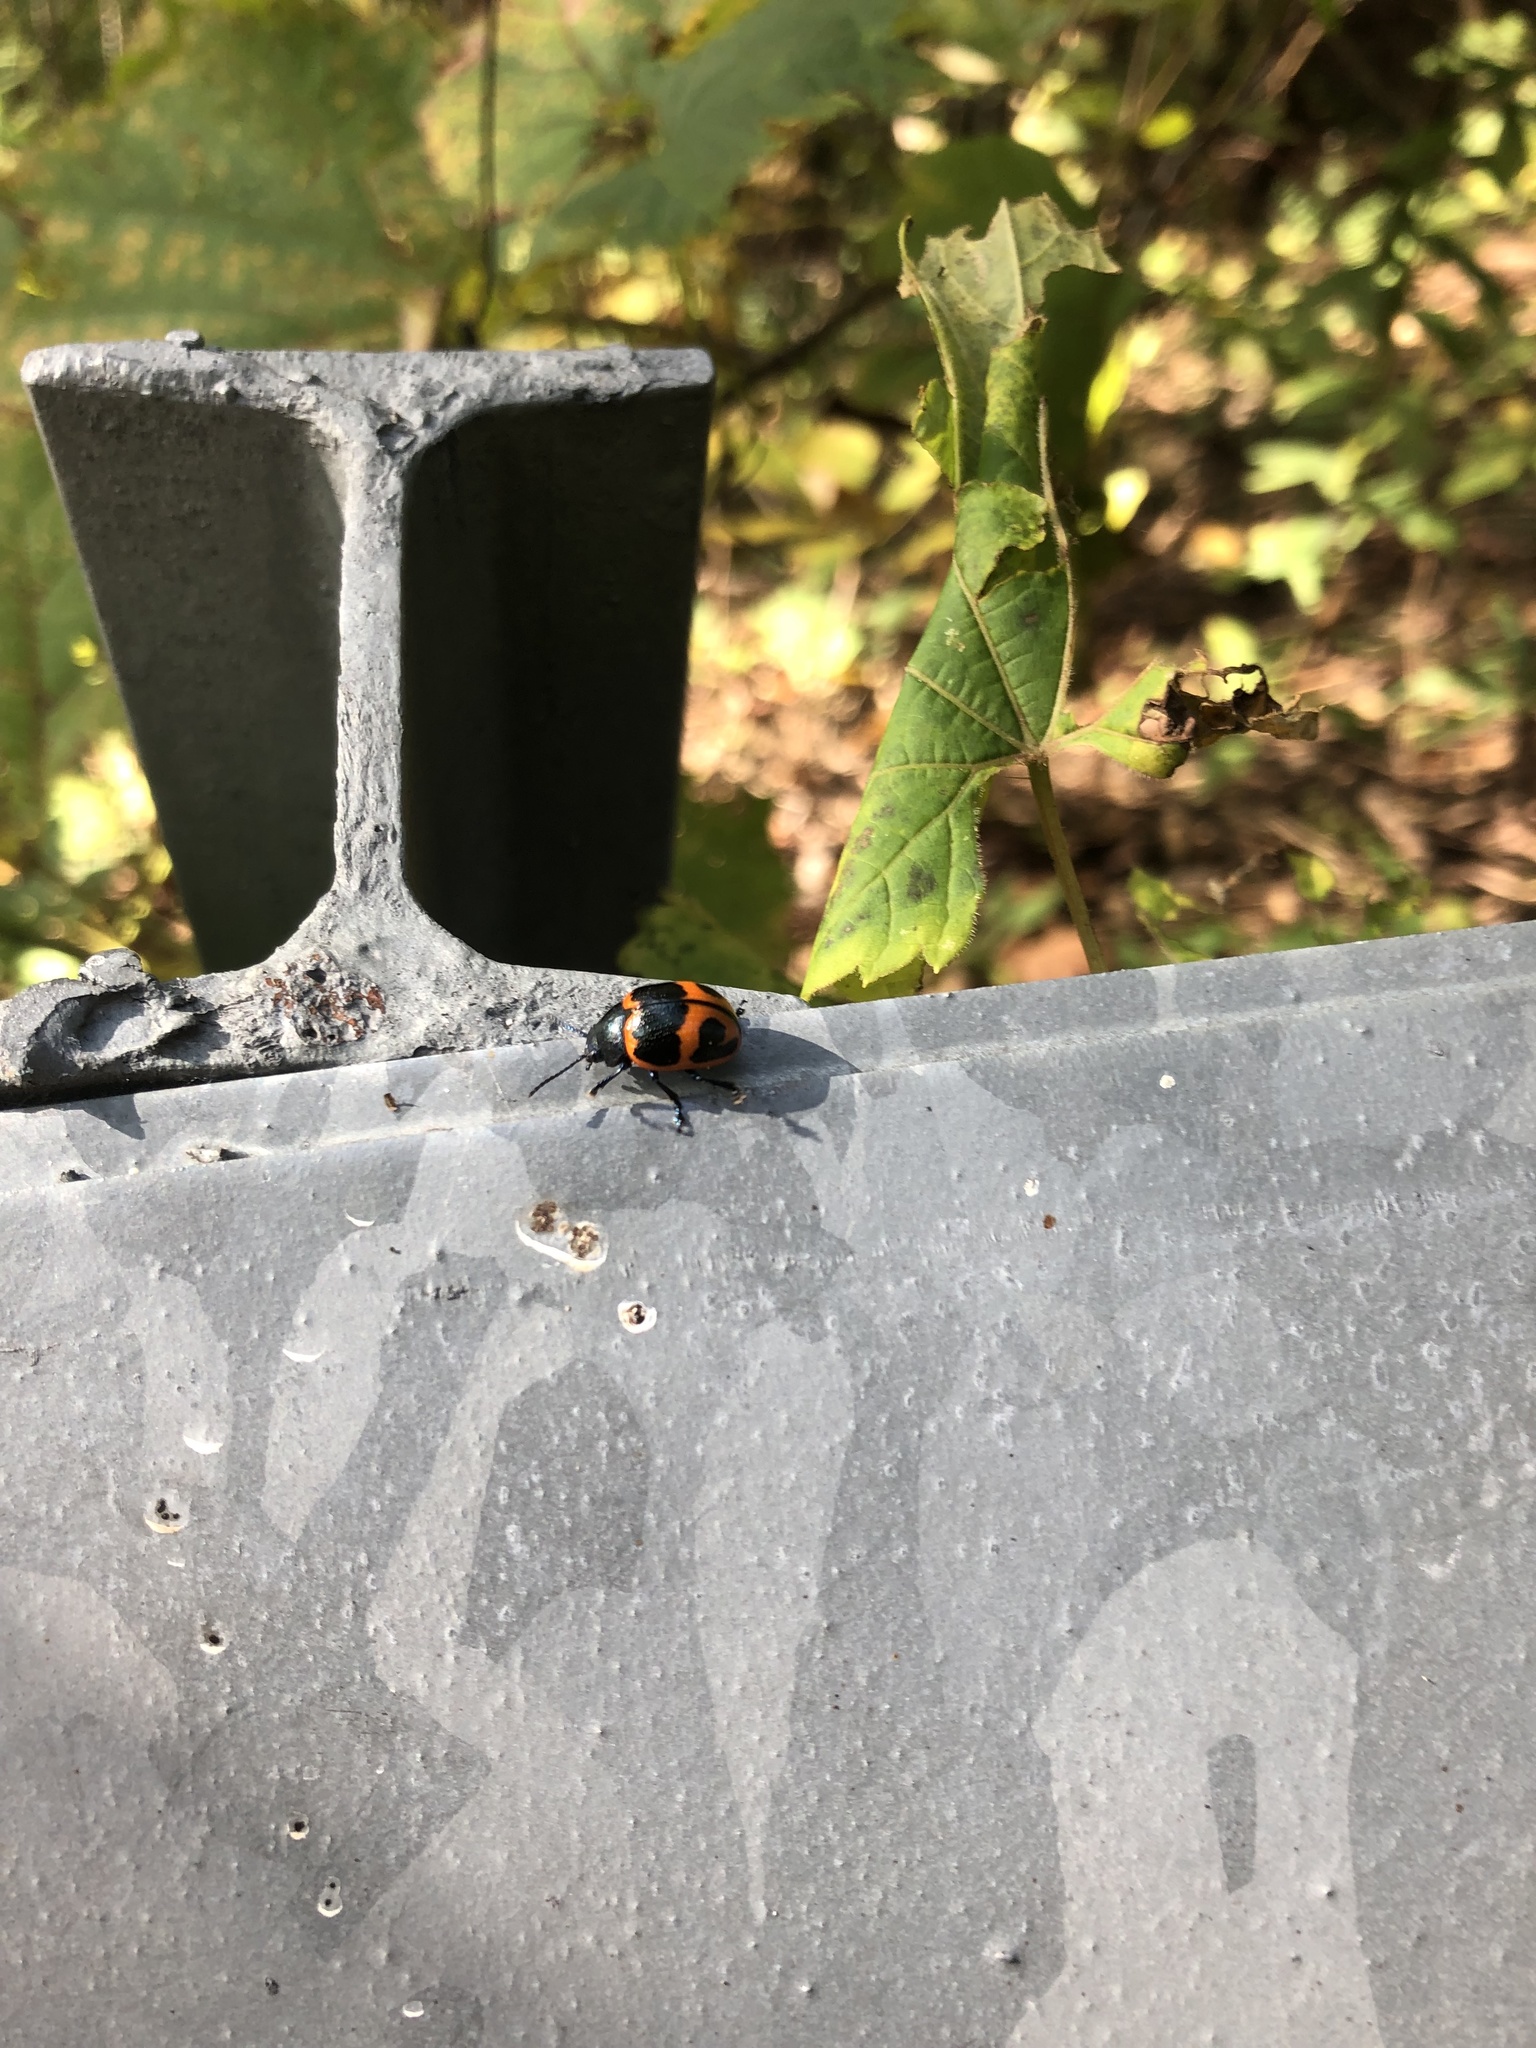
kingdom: Animalia
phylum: Arthropoda
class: Insecta
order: Coleoptera
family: Chrysomelidae
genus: Labidomera
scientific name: Labidomera clivicollis
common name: Swamp milkweed leaf beetle
